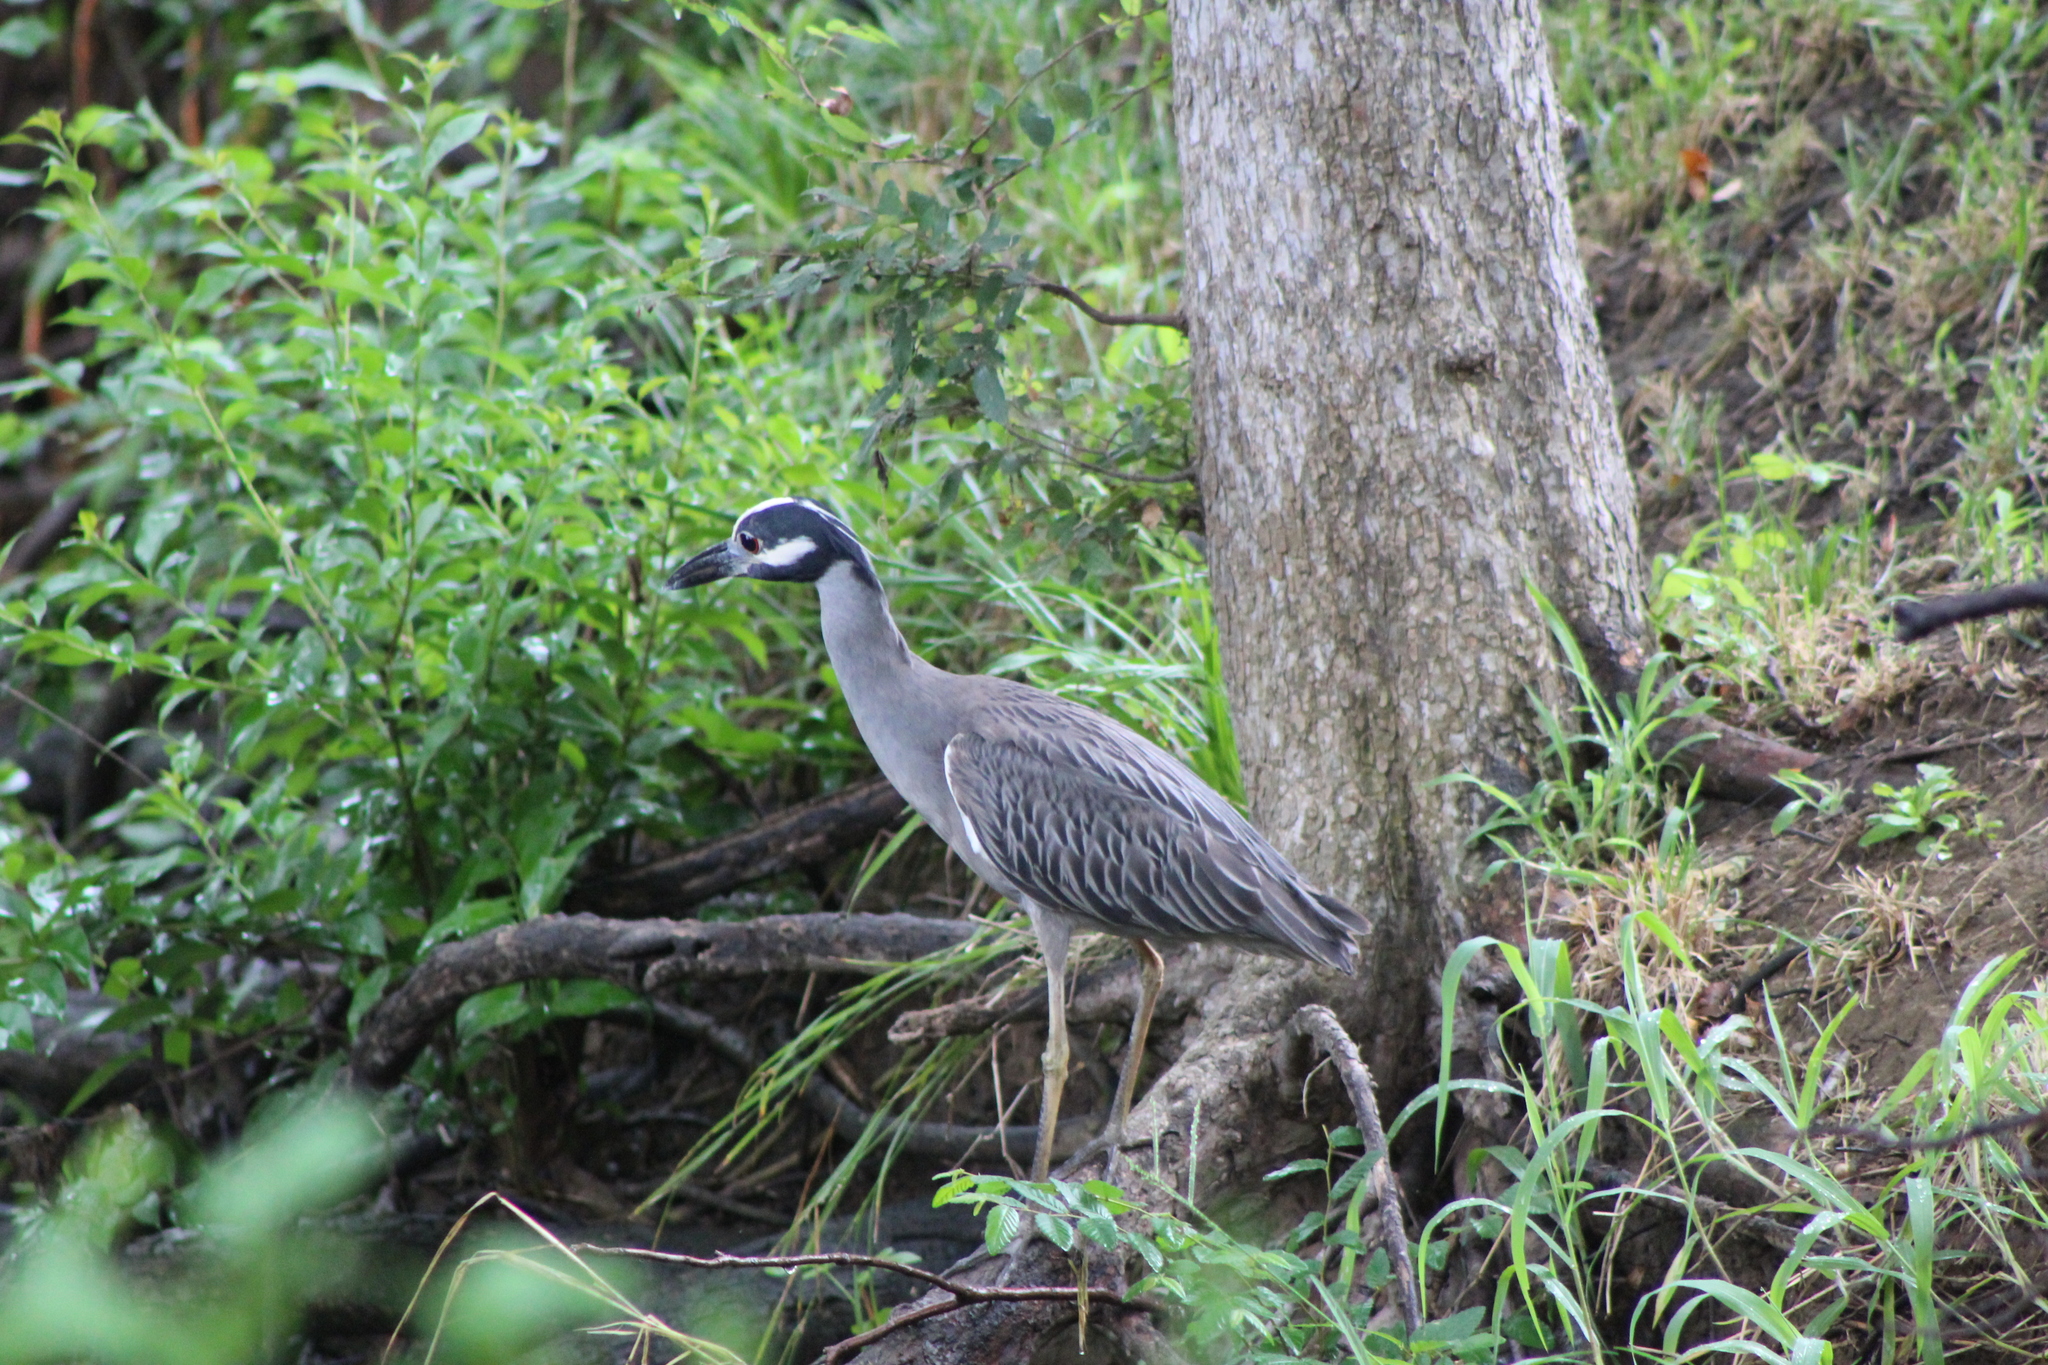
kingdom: Animalia
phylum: Chordata
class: Aves
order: Pelecaniformes
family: Ardeidae
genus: Nyctanassa
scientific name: Nyctanassa violacea
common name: Yellow-crowned night heron
